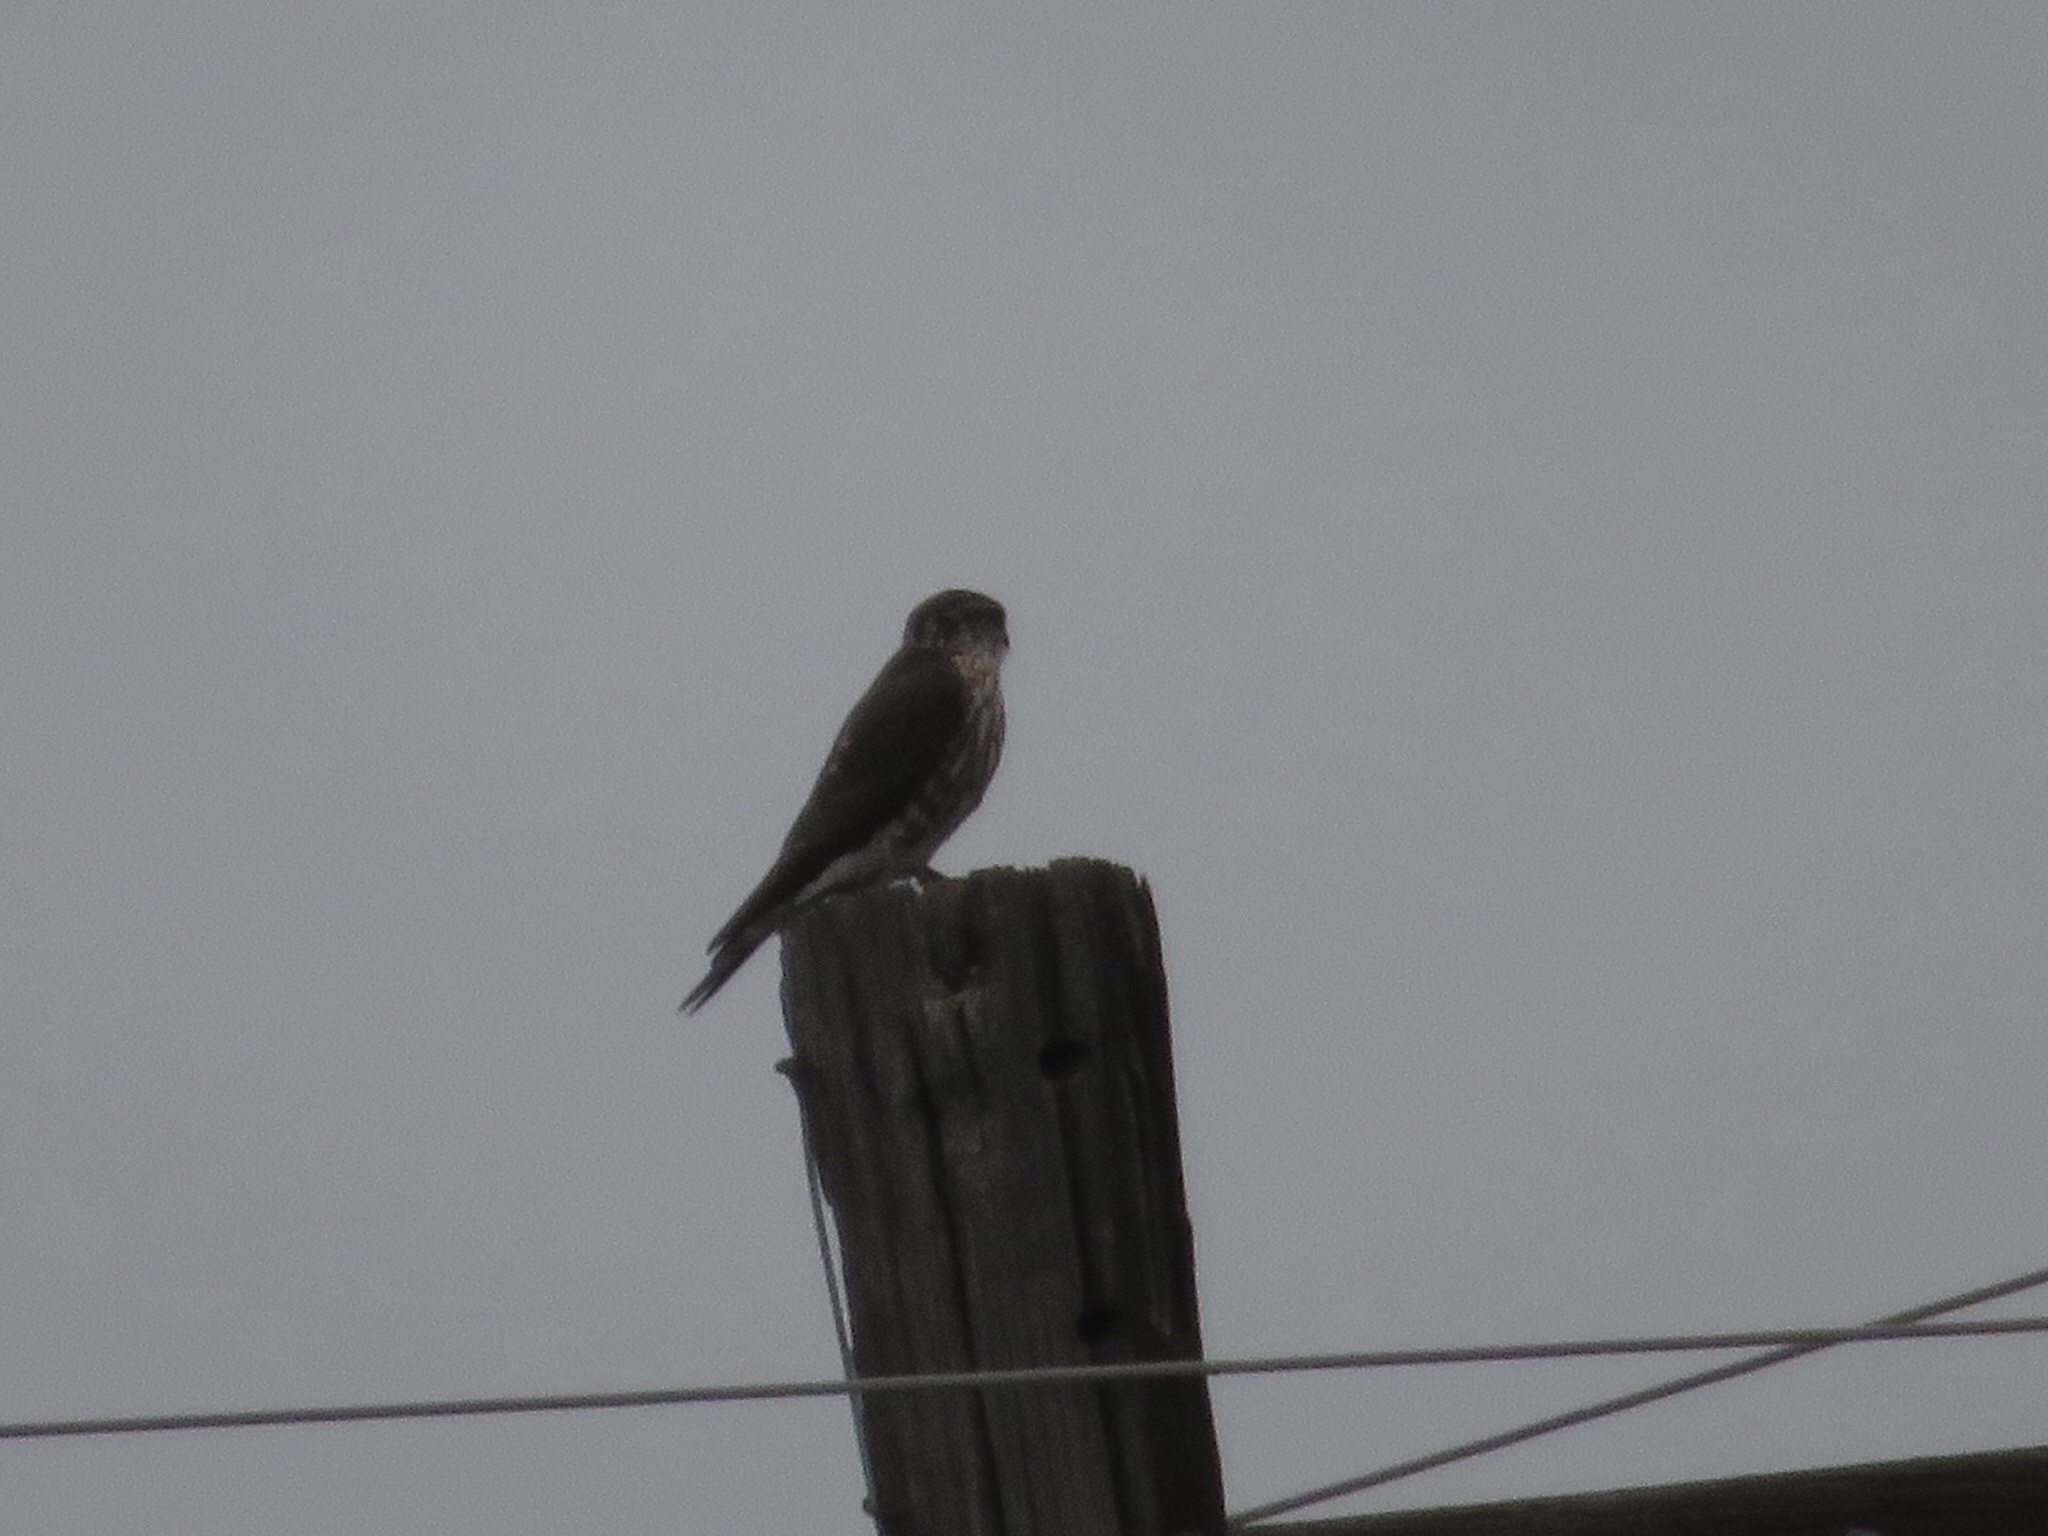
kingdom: Animalia
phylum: Chordata
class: Aves
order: Falconiformes
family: Falconidae
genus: Falco
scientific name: Falco columbarius
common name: Merlin
